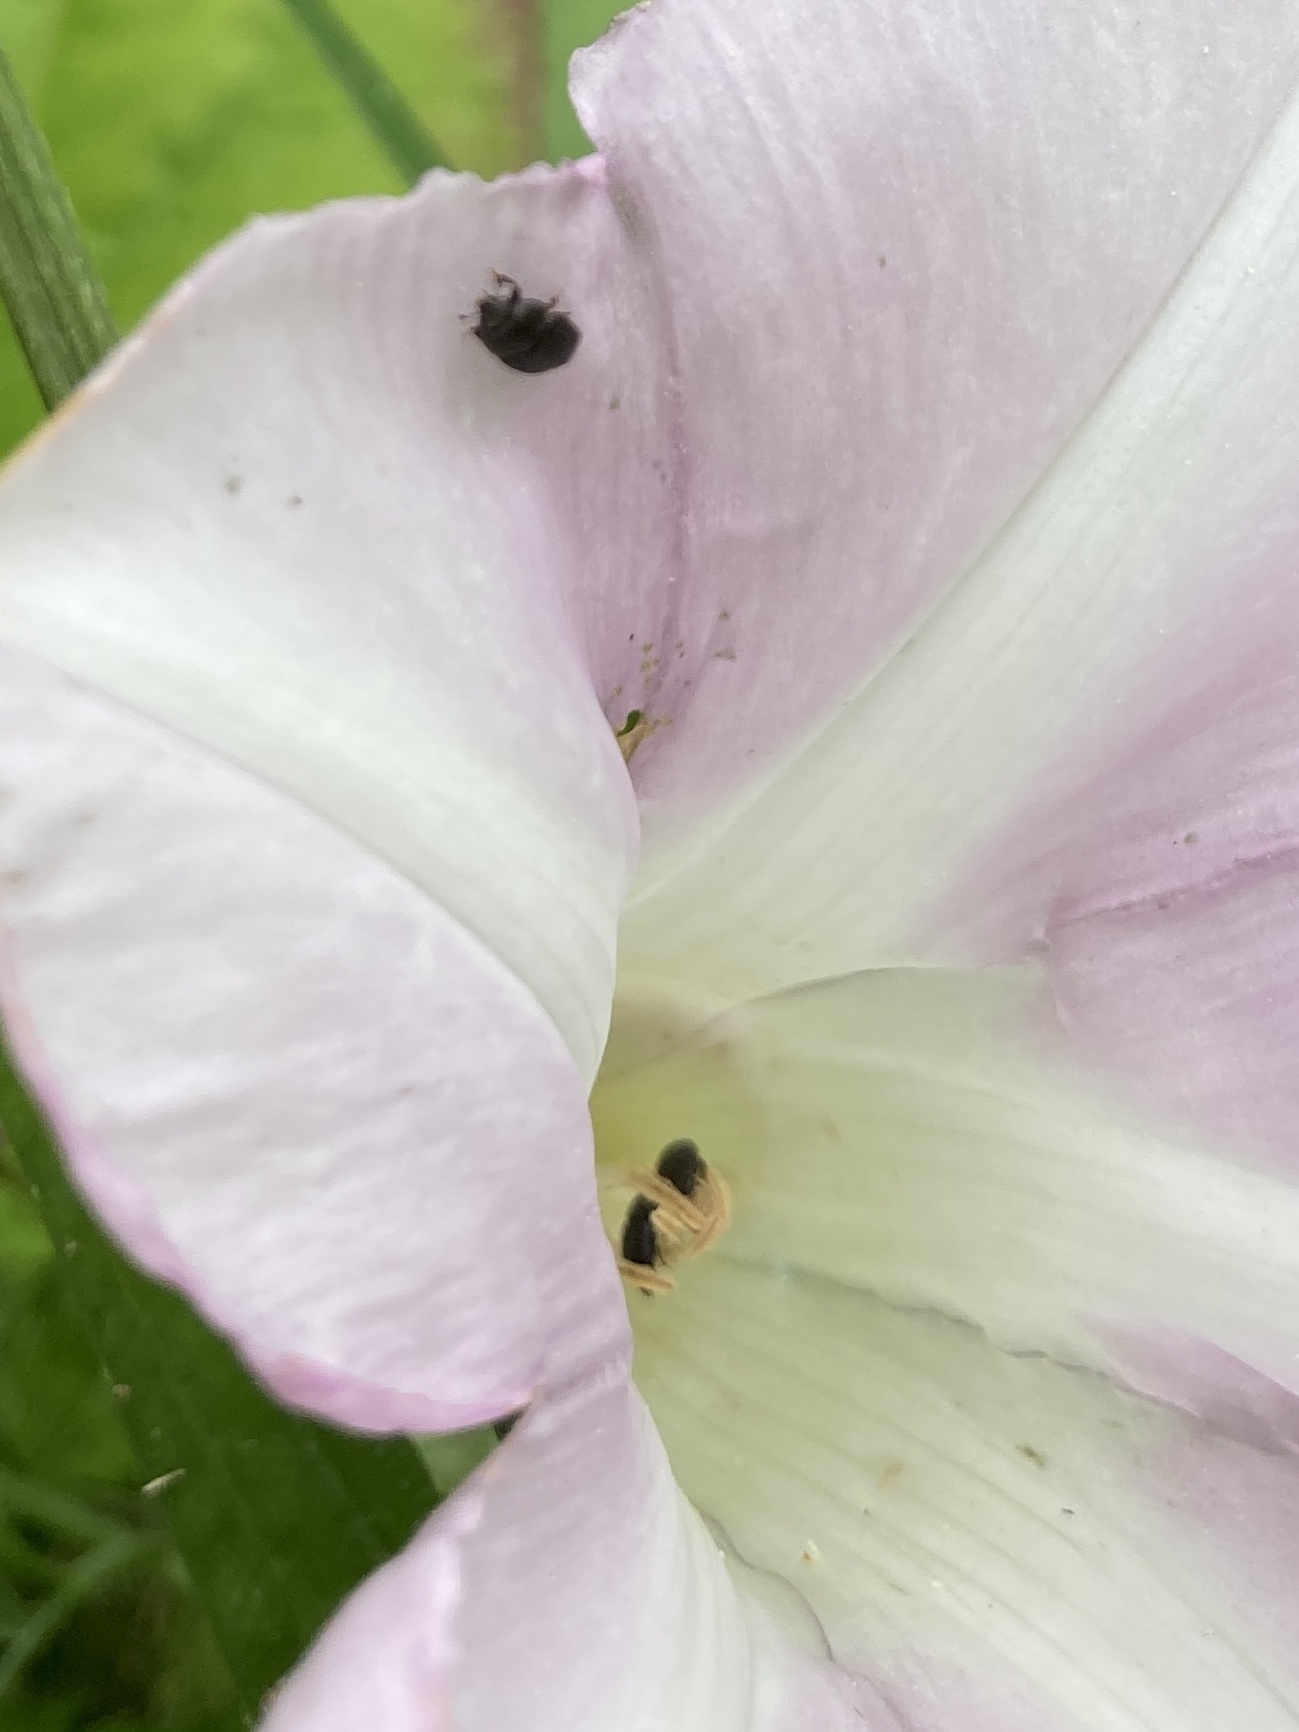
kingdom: Animalia
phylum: Arthropoda
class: Insecta
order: Coleoptera
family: Nitidulidae
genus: Aethina
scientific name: Aethina concolor
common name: Sap beetle
